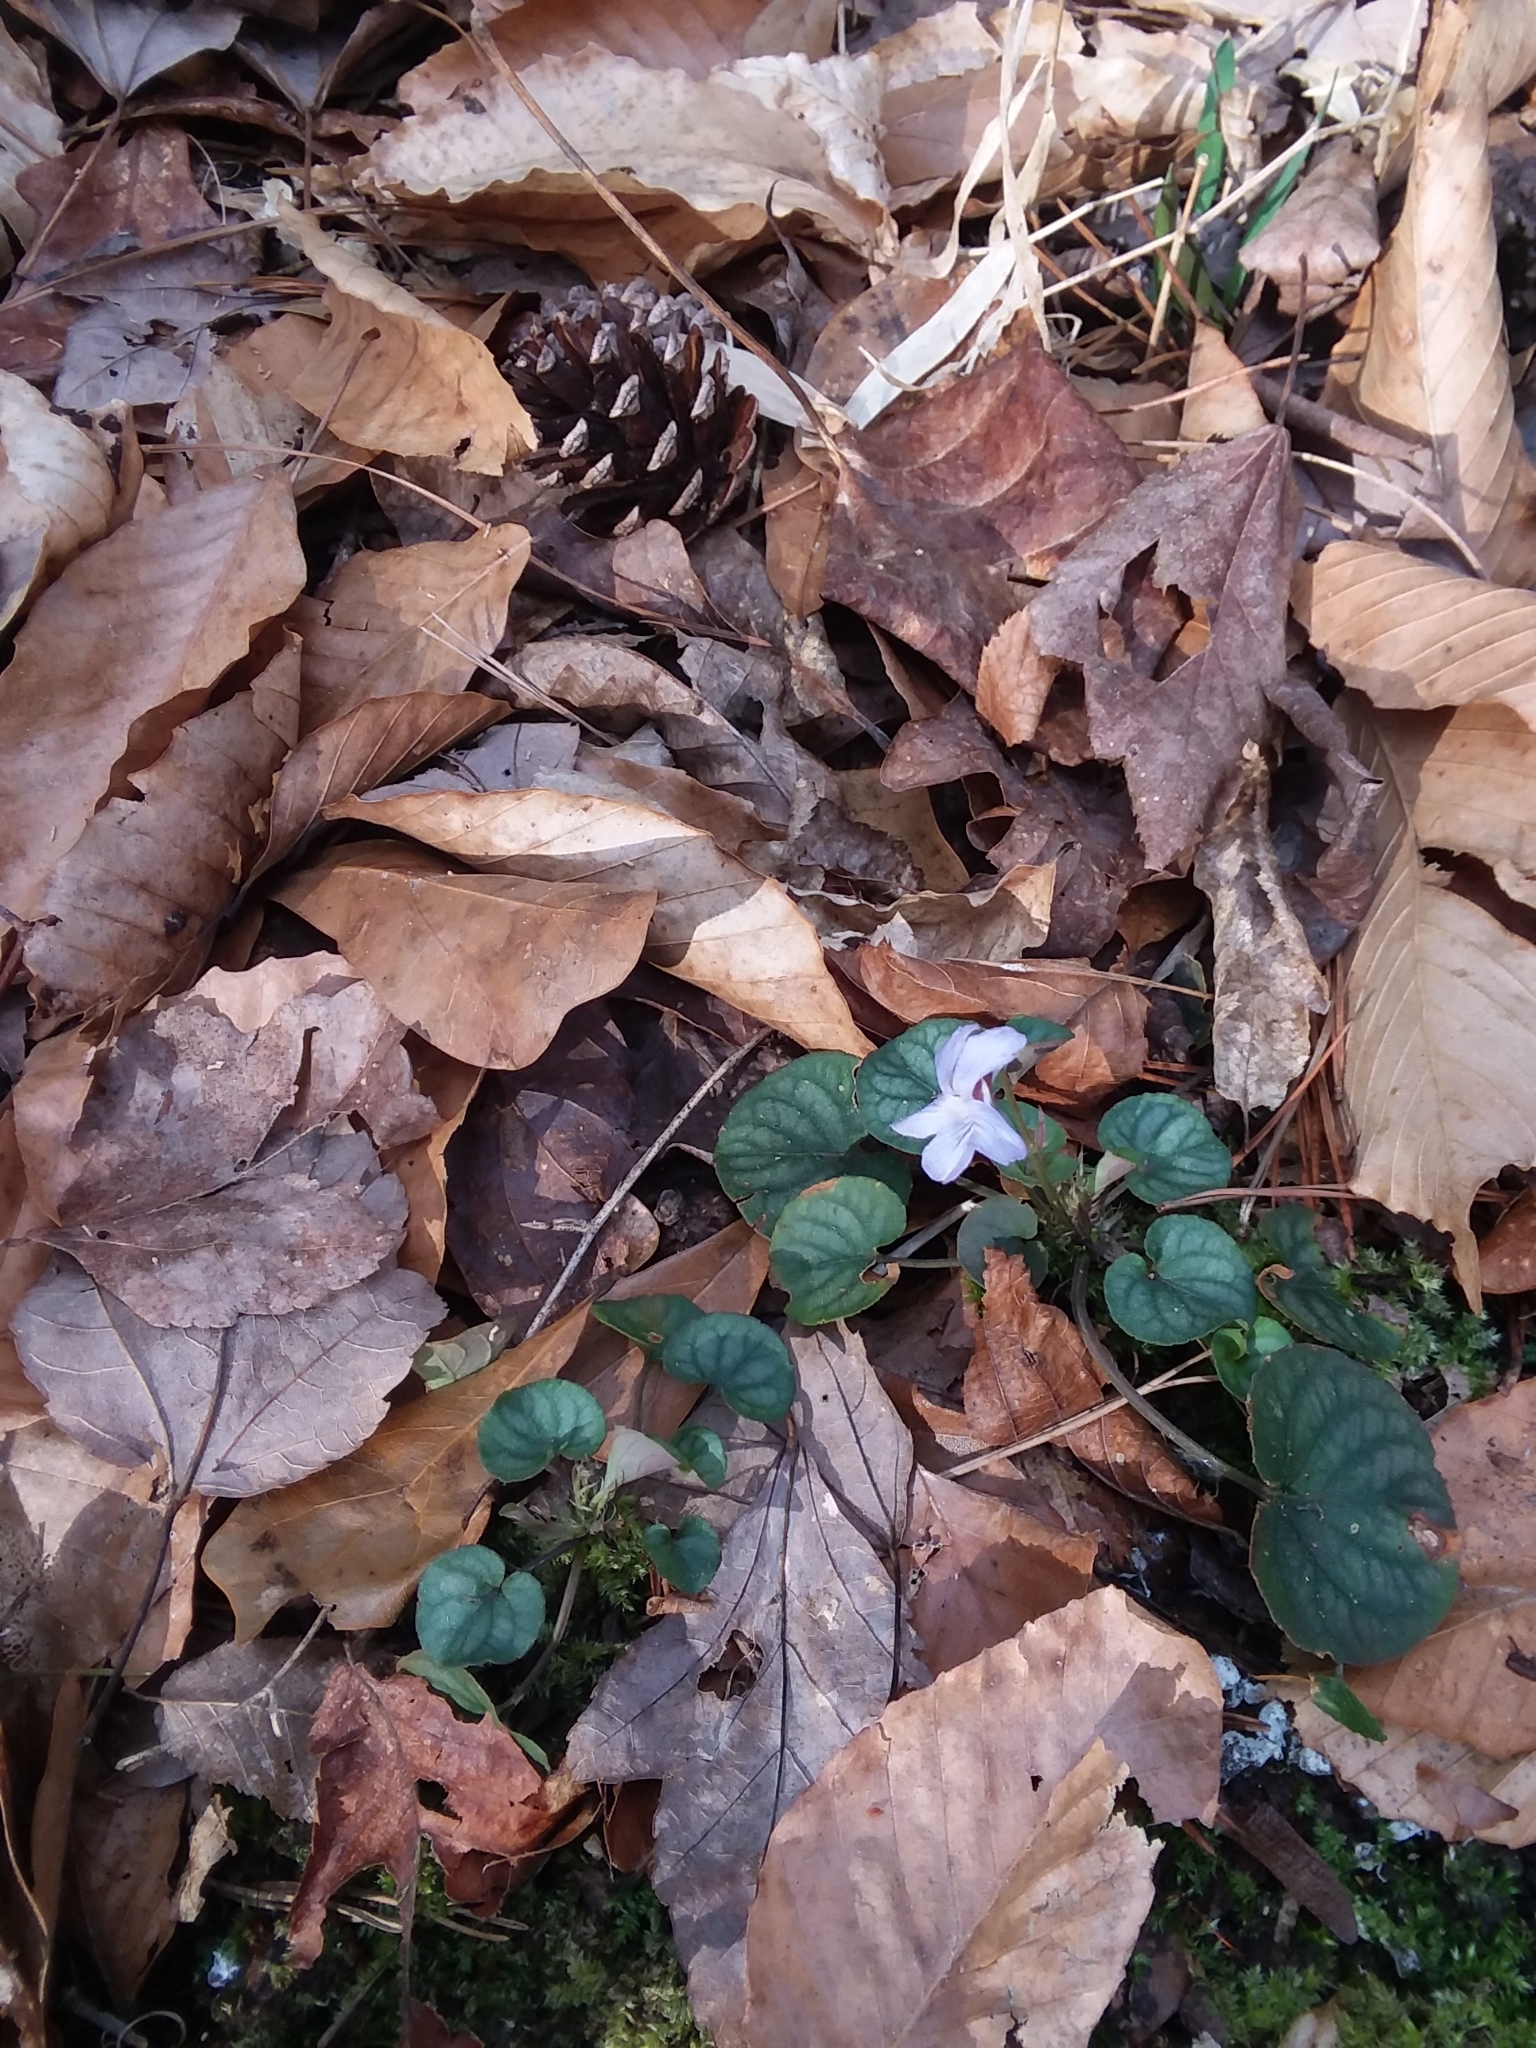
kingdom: Plantae
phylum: Tracheophyta
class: Magnoliopsida
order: Malpighiales
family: Violaceae
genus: Viola
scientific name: Viola walteri
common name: Prostrate southern violet
